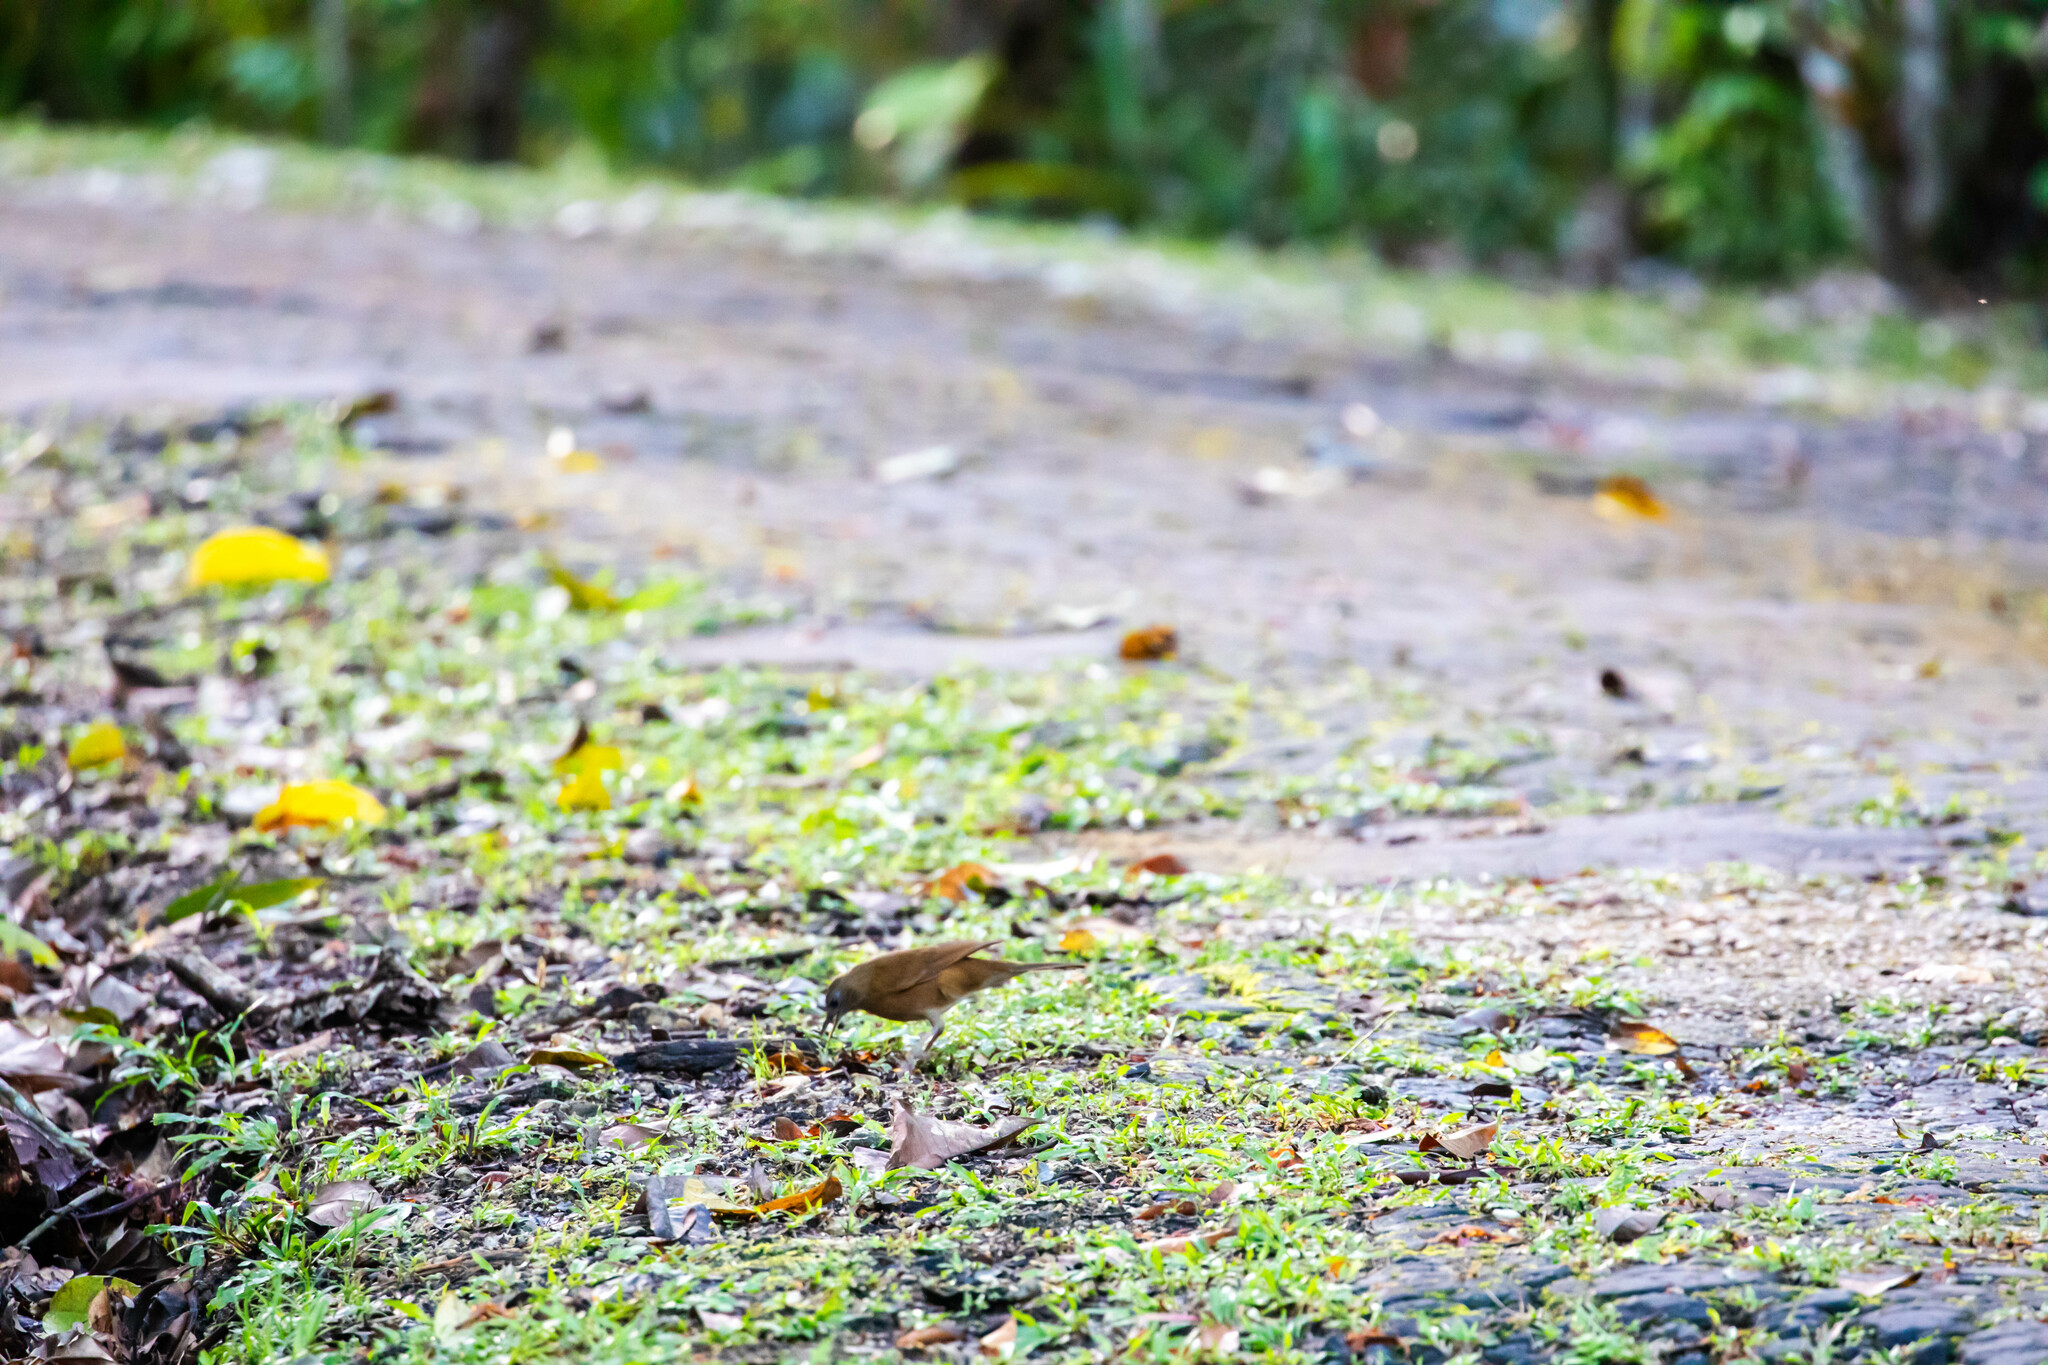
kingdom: Animalia
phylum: Chordata
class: Aves
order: Passeriformes
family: Turdidae
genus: Turdus
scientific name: Turdus fumigatus
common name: Cocoa thrush
